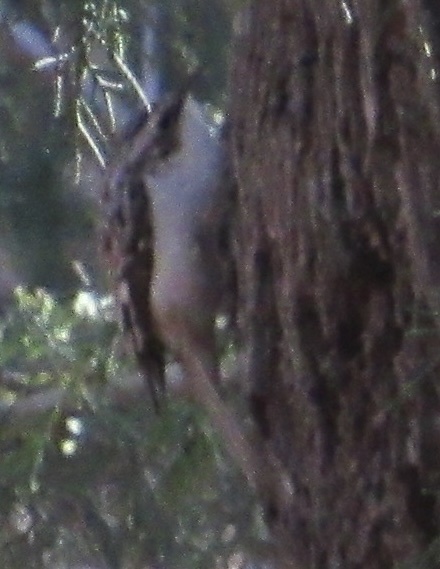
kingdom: Animalia
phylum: Chordata
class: Aves
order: Passeriformes
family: Certhiidae
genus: Certhia
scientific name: Certhia americana
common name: Brown creeper
